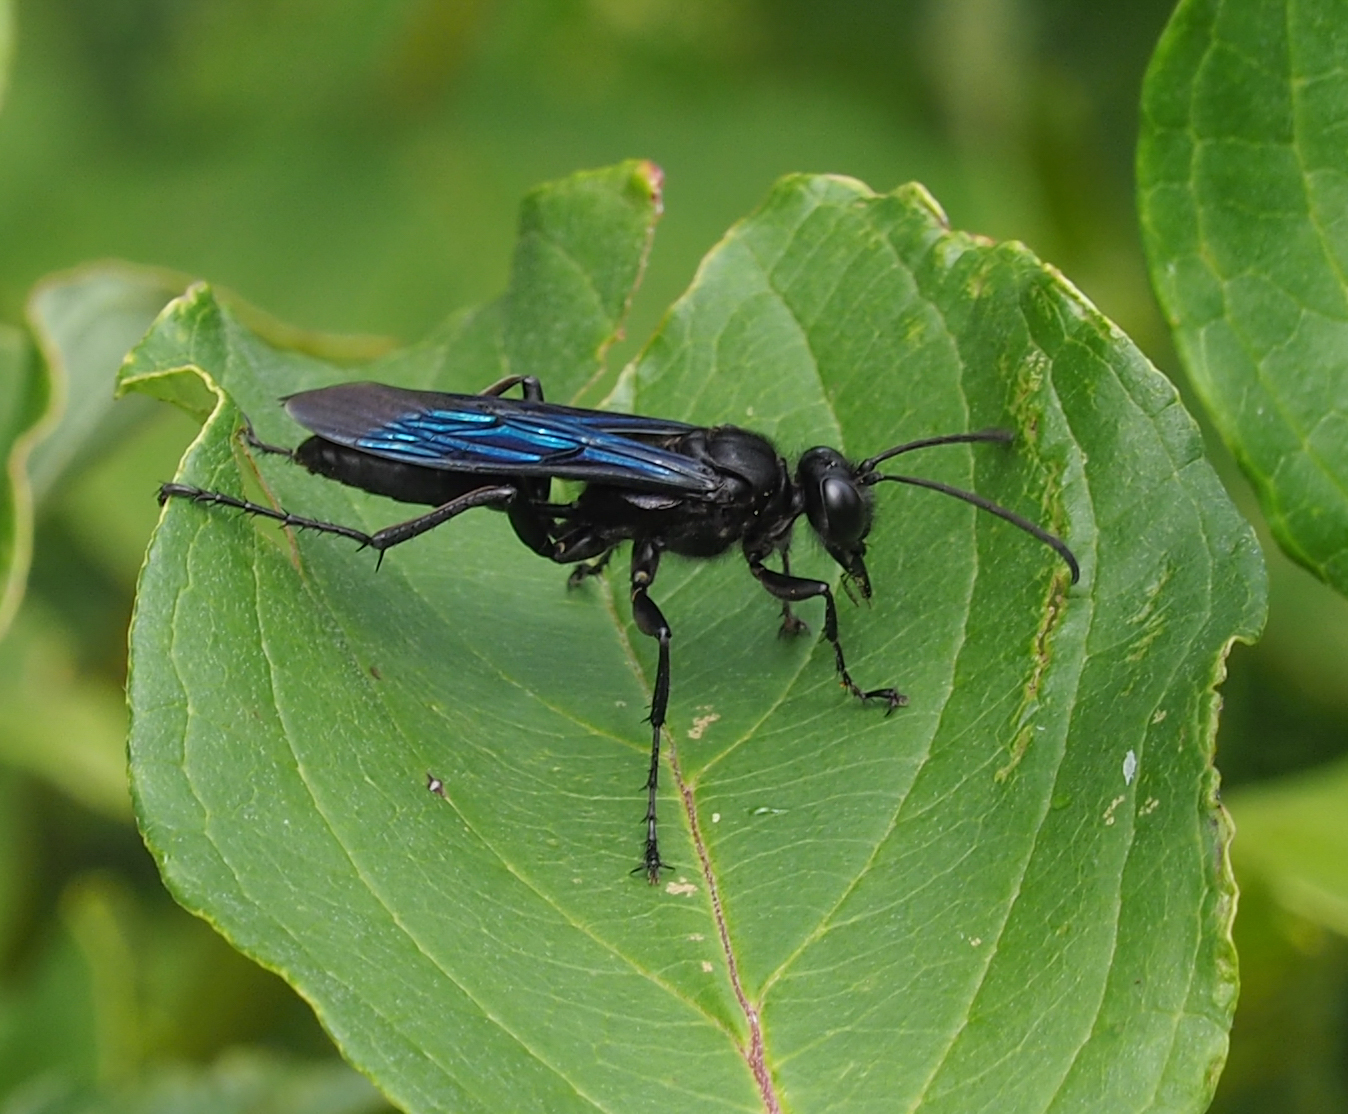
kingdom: Animalia
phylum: Arthropoda
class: Insecta
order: Hymenoptera
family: Sphecidae
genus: Sphex
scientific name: Sphex pensylvanicus
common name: Great black digger wasp
